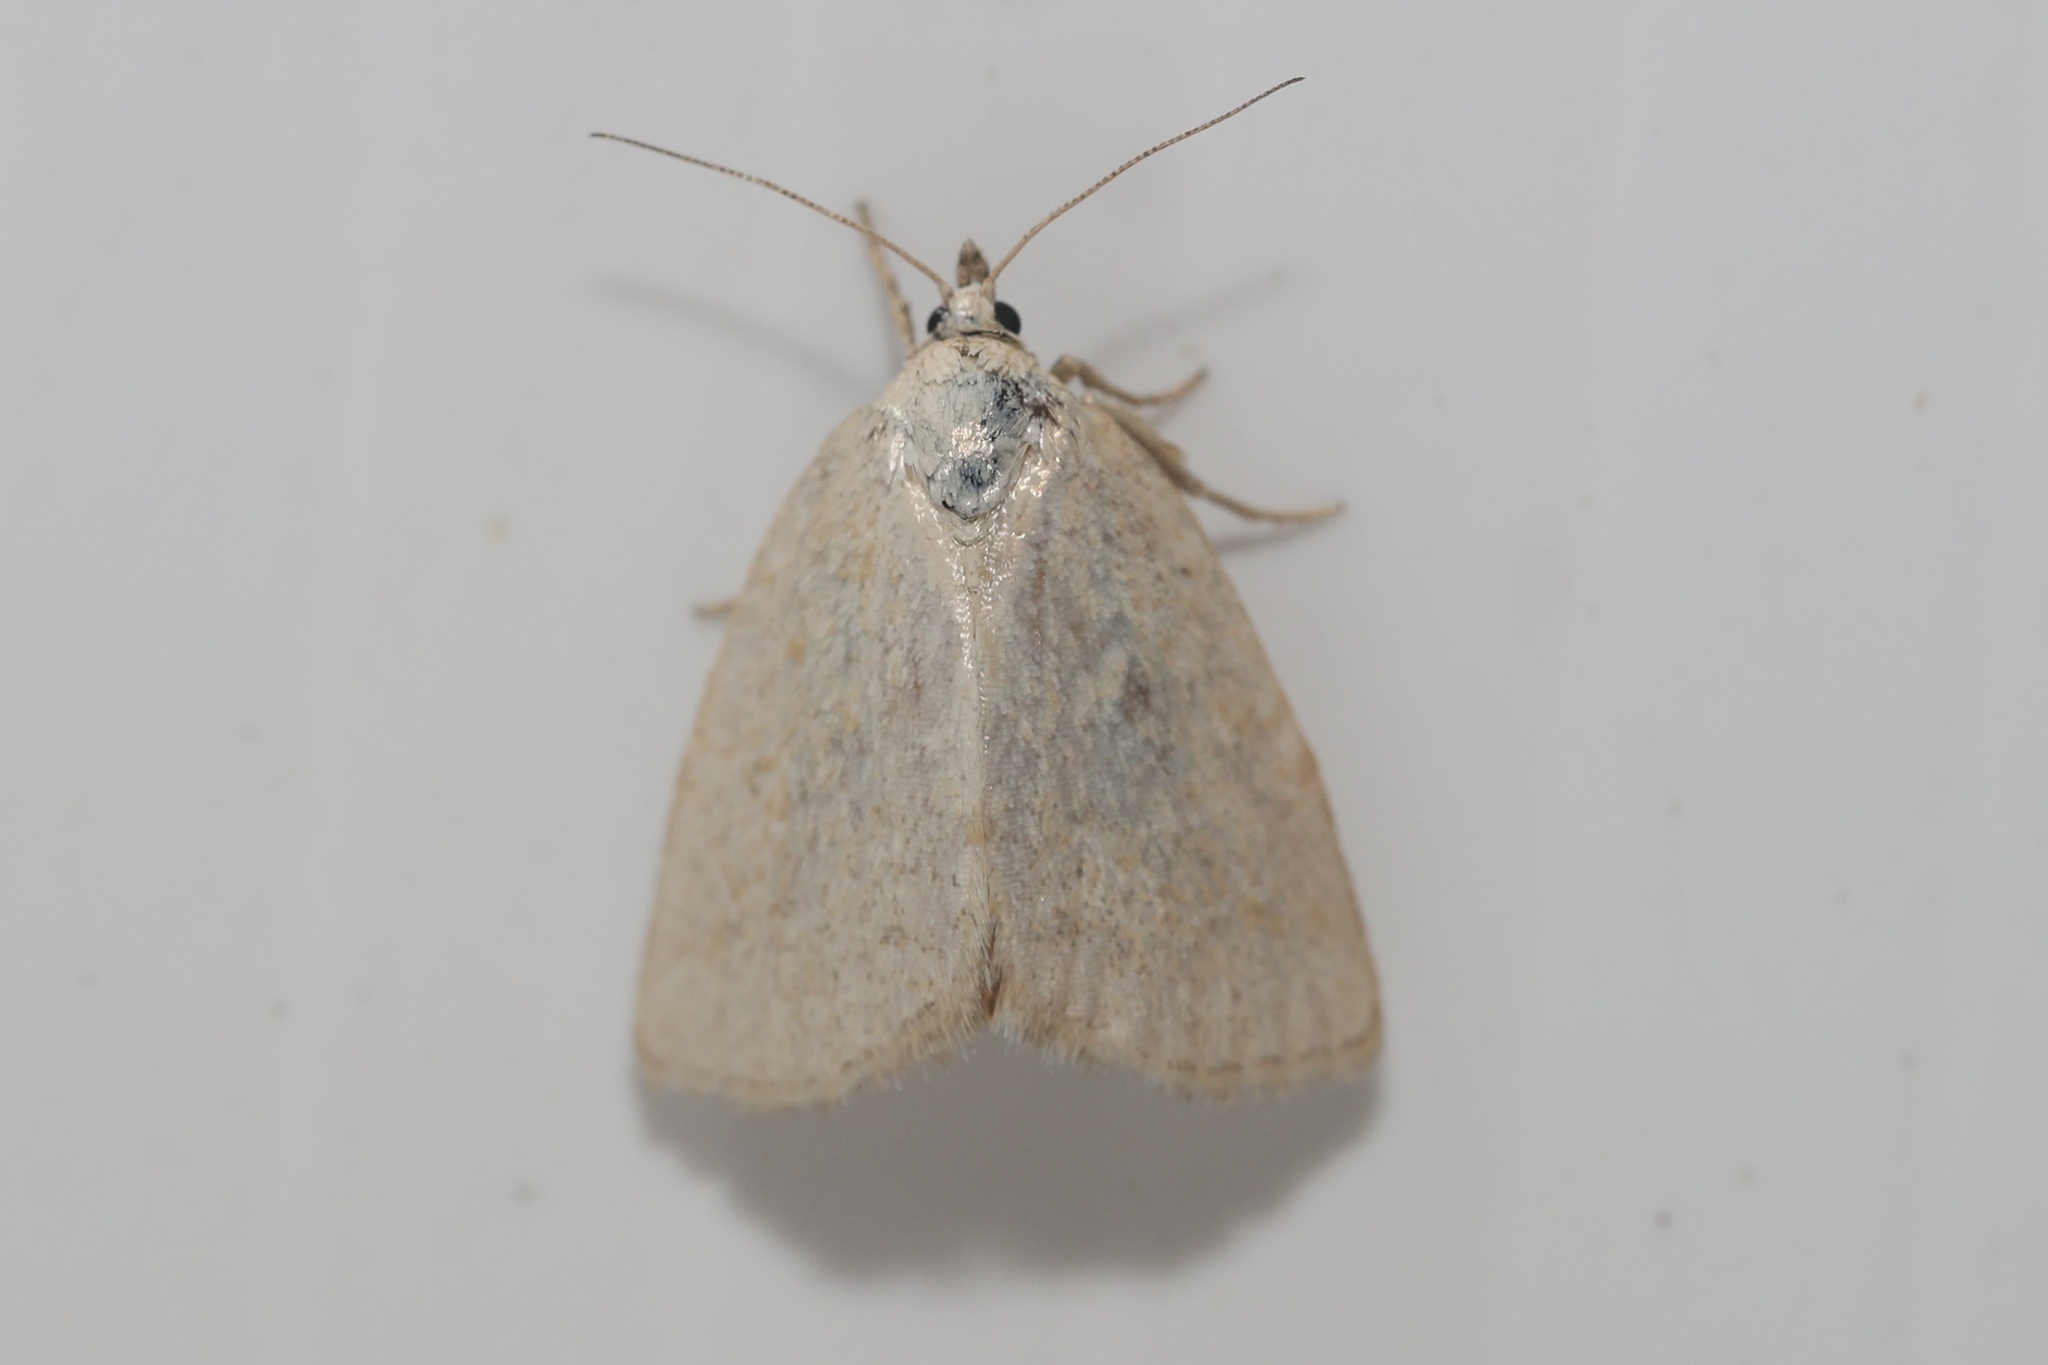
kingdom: Animalia
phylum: Arthropoda
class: Insecta
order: Lepidoptera
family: Noctuidae
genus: Protodeltote
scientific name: Protodeltote albidula
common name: Pale glyph
